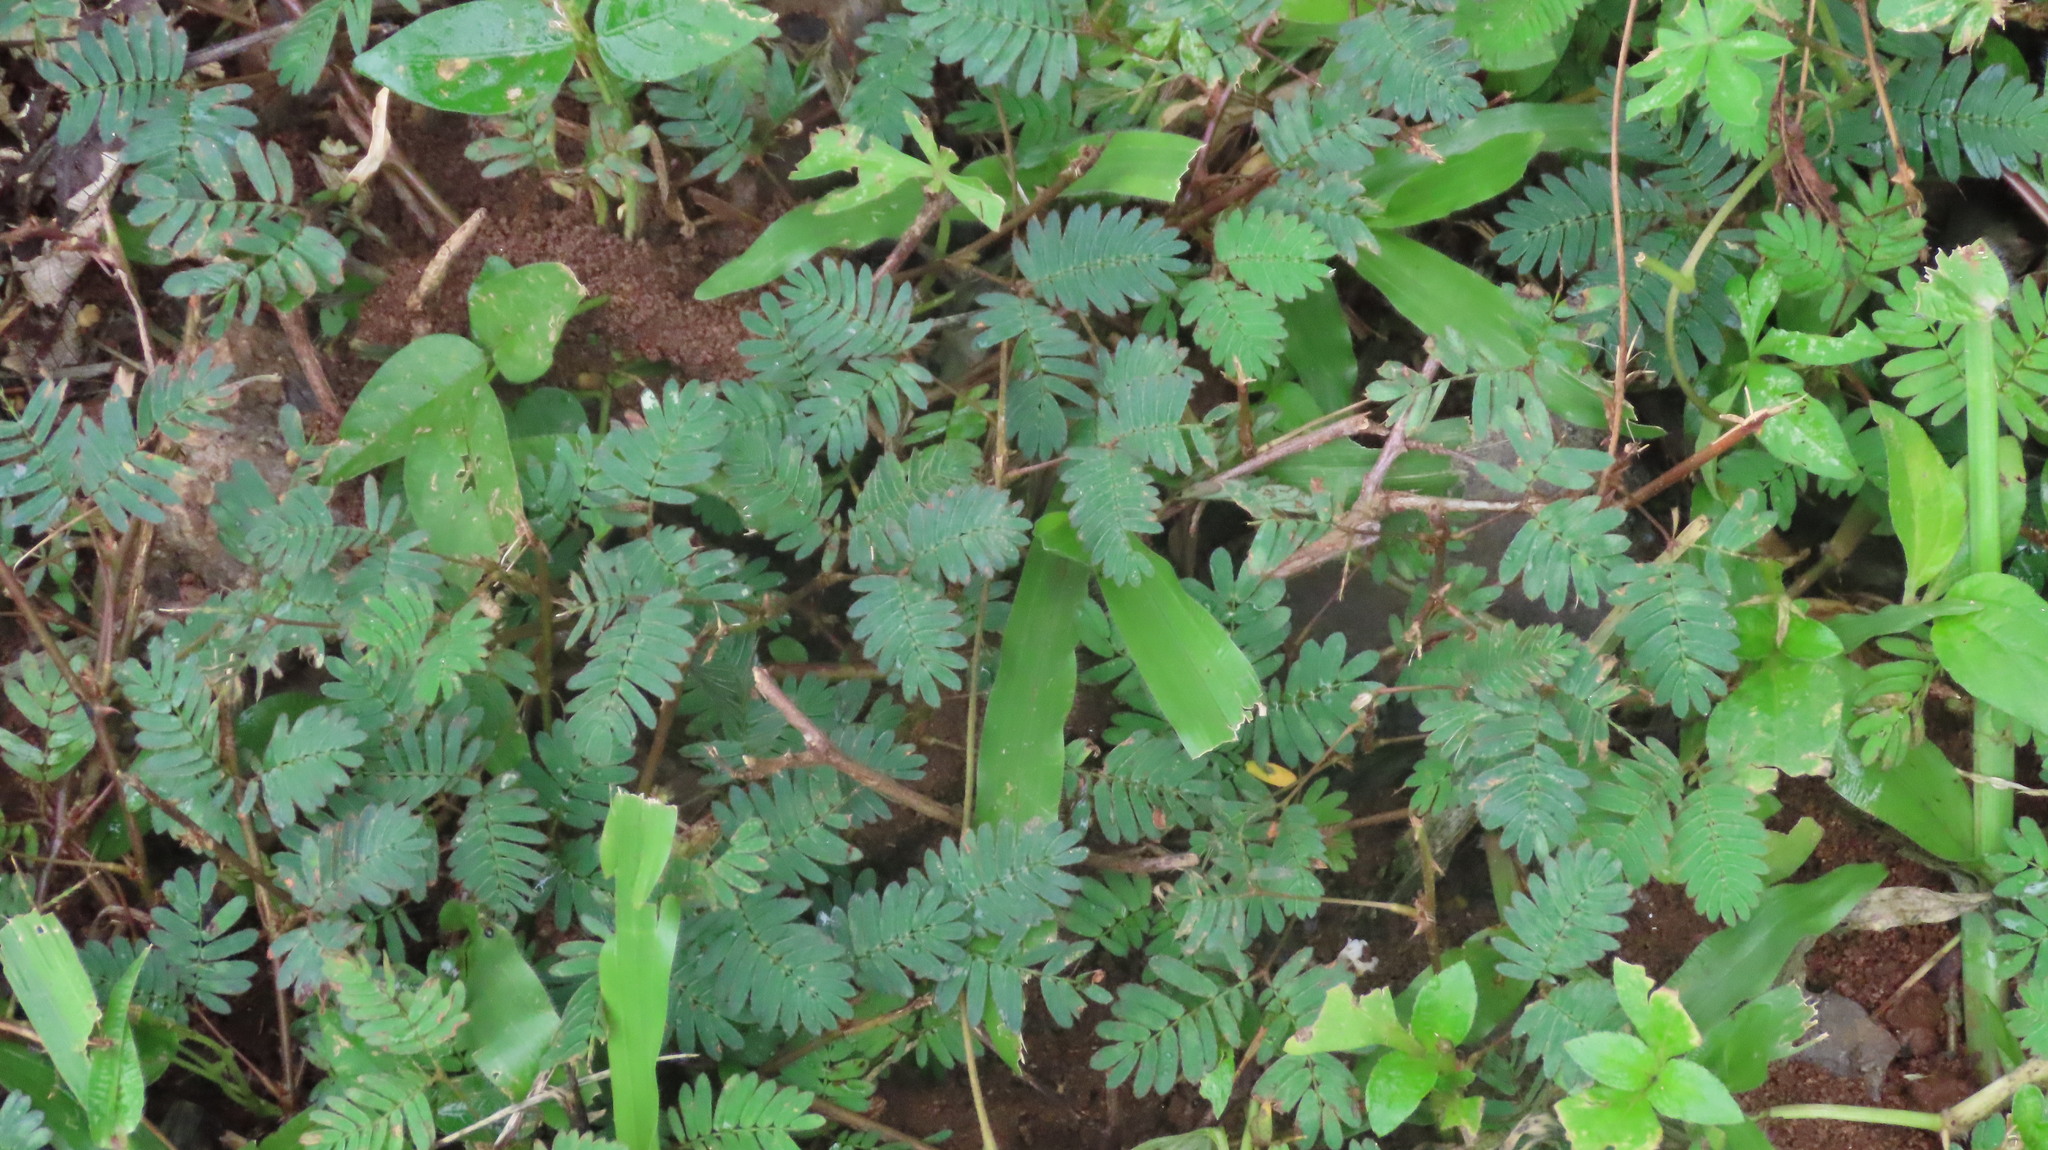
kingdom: Plantae
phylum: Tracheophyta
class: Magnoliopsida
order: Fabales
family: Fabaceae
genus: Mimosa
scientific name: Mimosa pudica
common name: Sensitive plant
